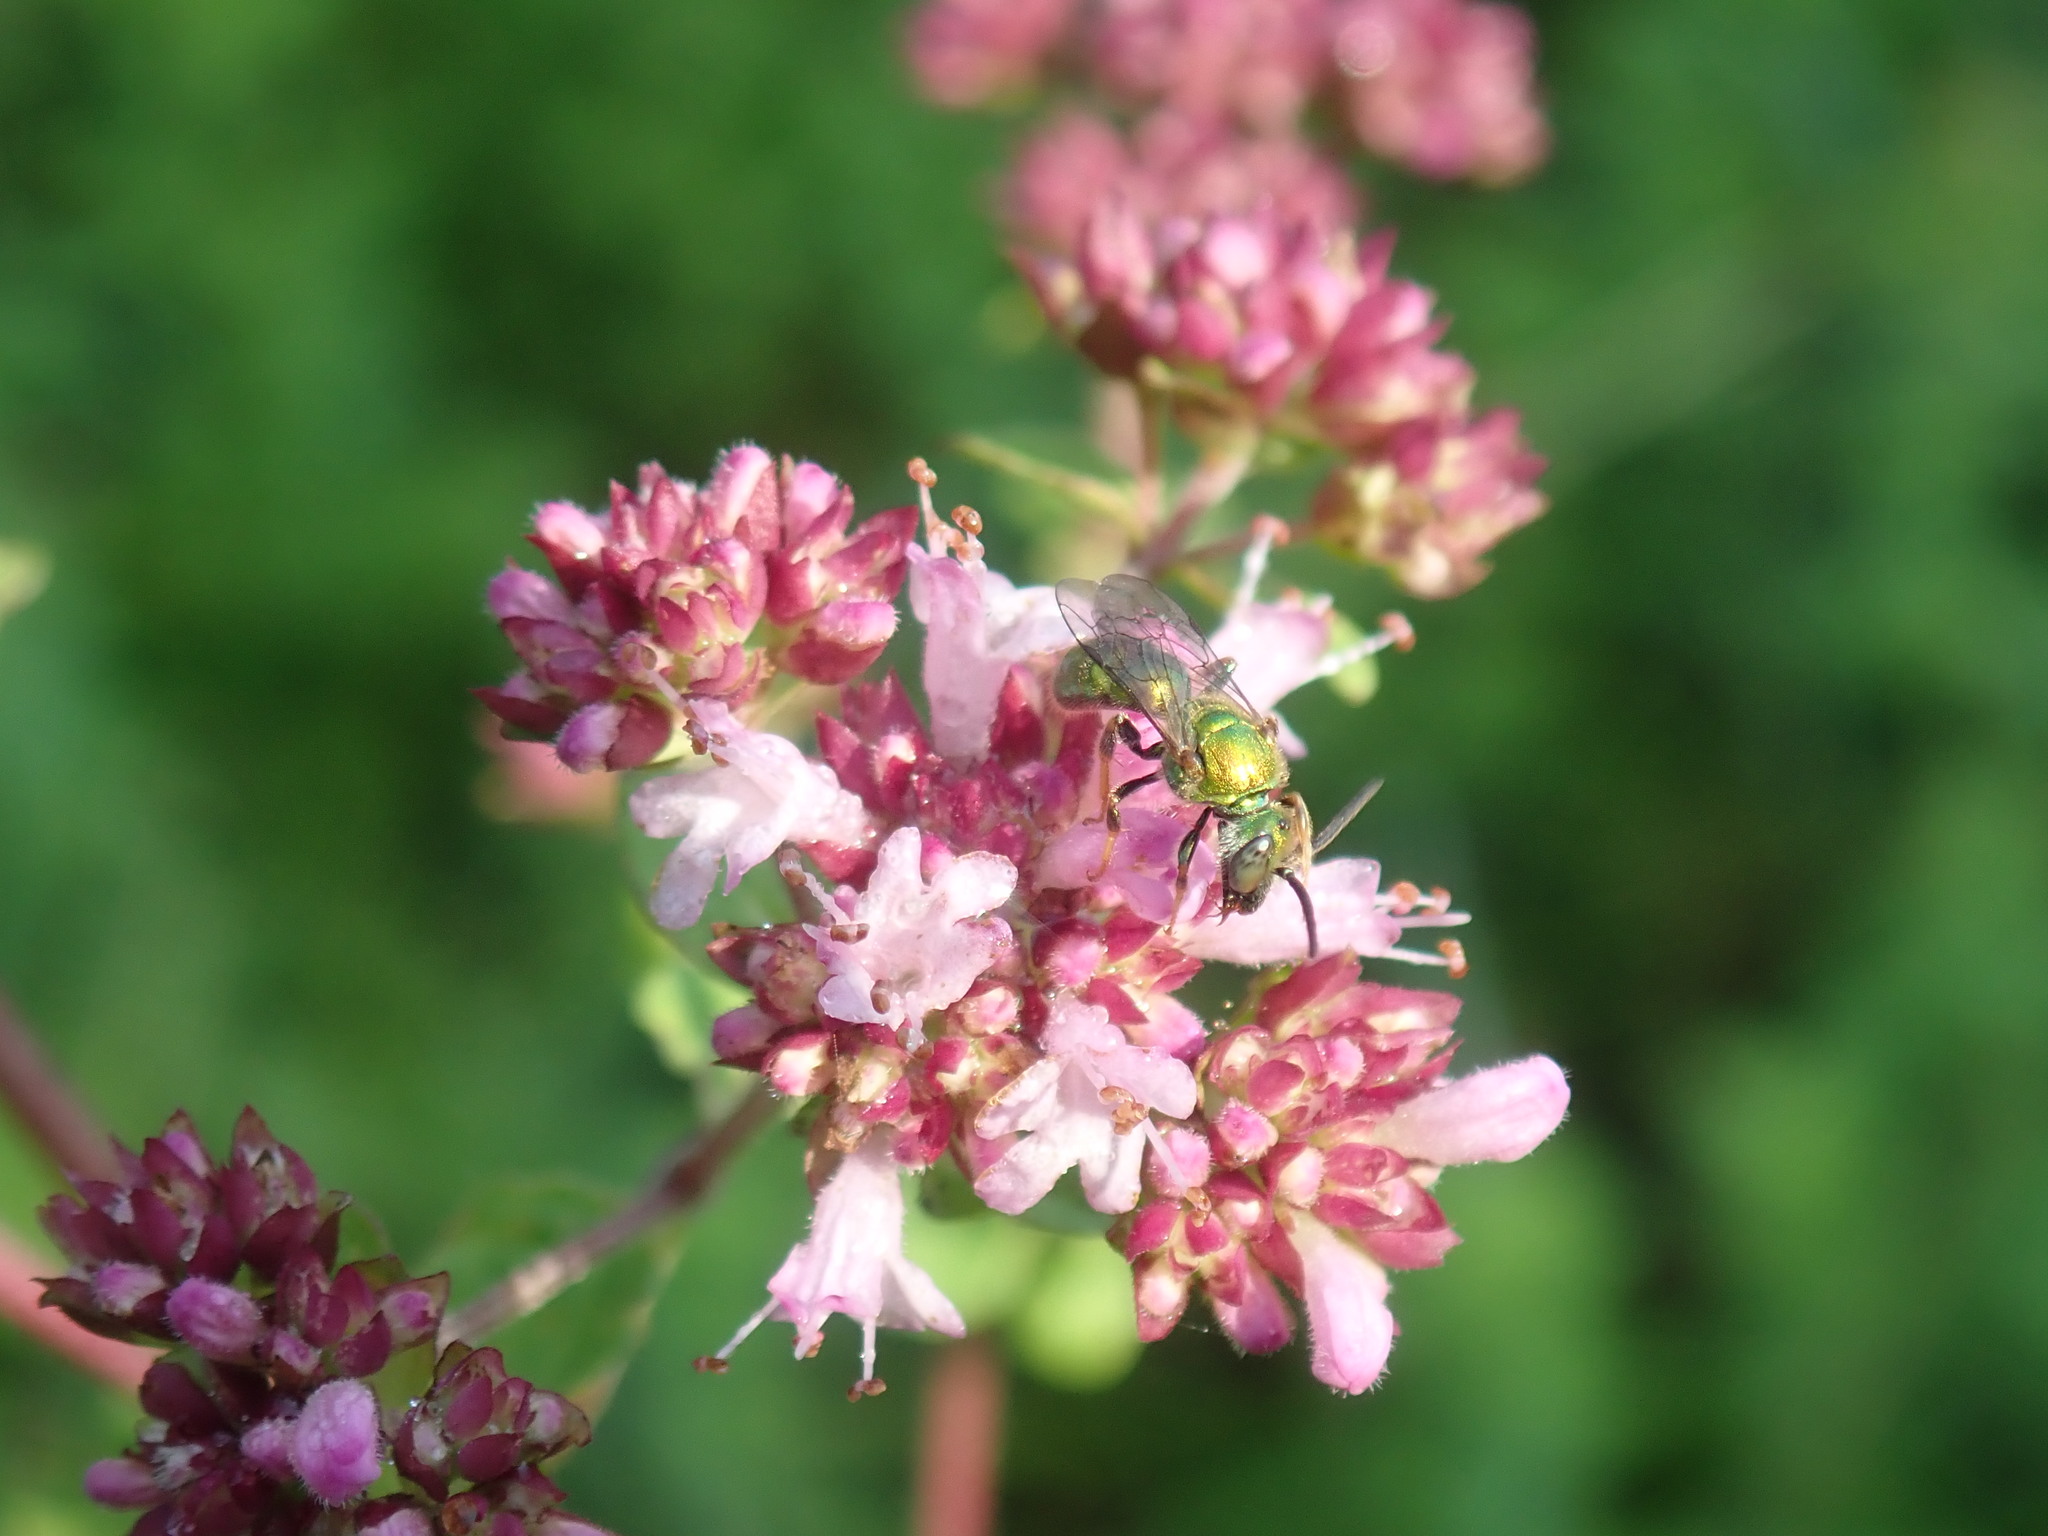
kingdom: Plantae
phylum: Tracheophyta
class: Magnoliopsida
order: Lamiales
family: Lamiaceae
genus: Origanum
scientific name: Origanum vulgare
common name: Wild marjoram
